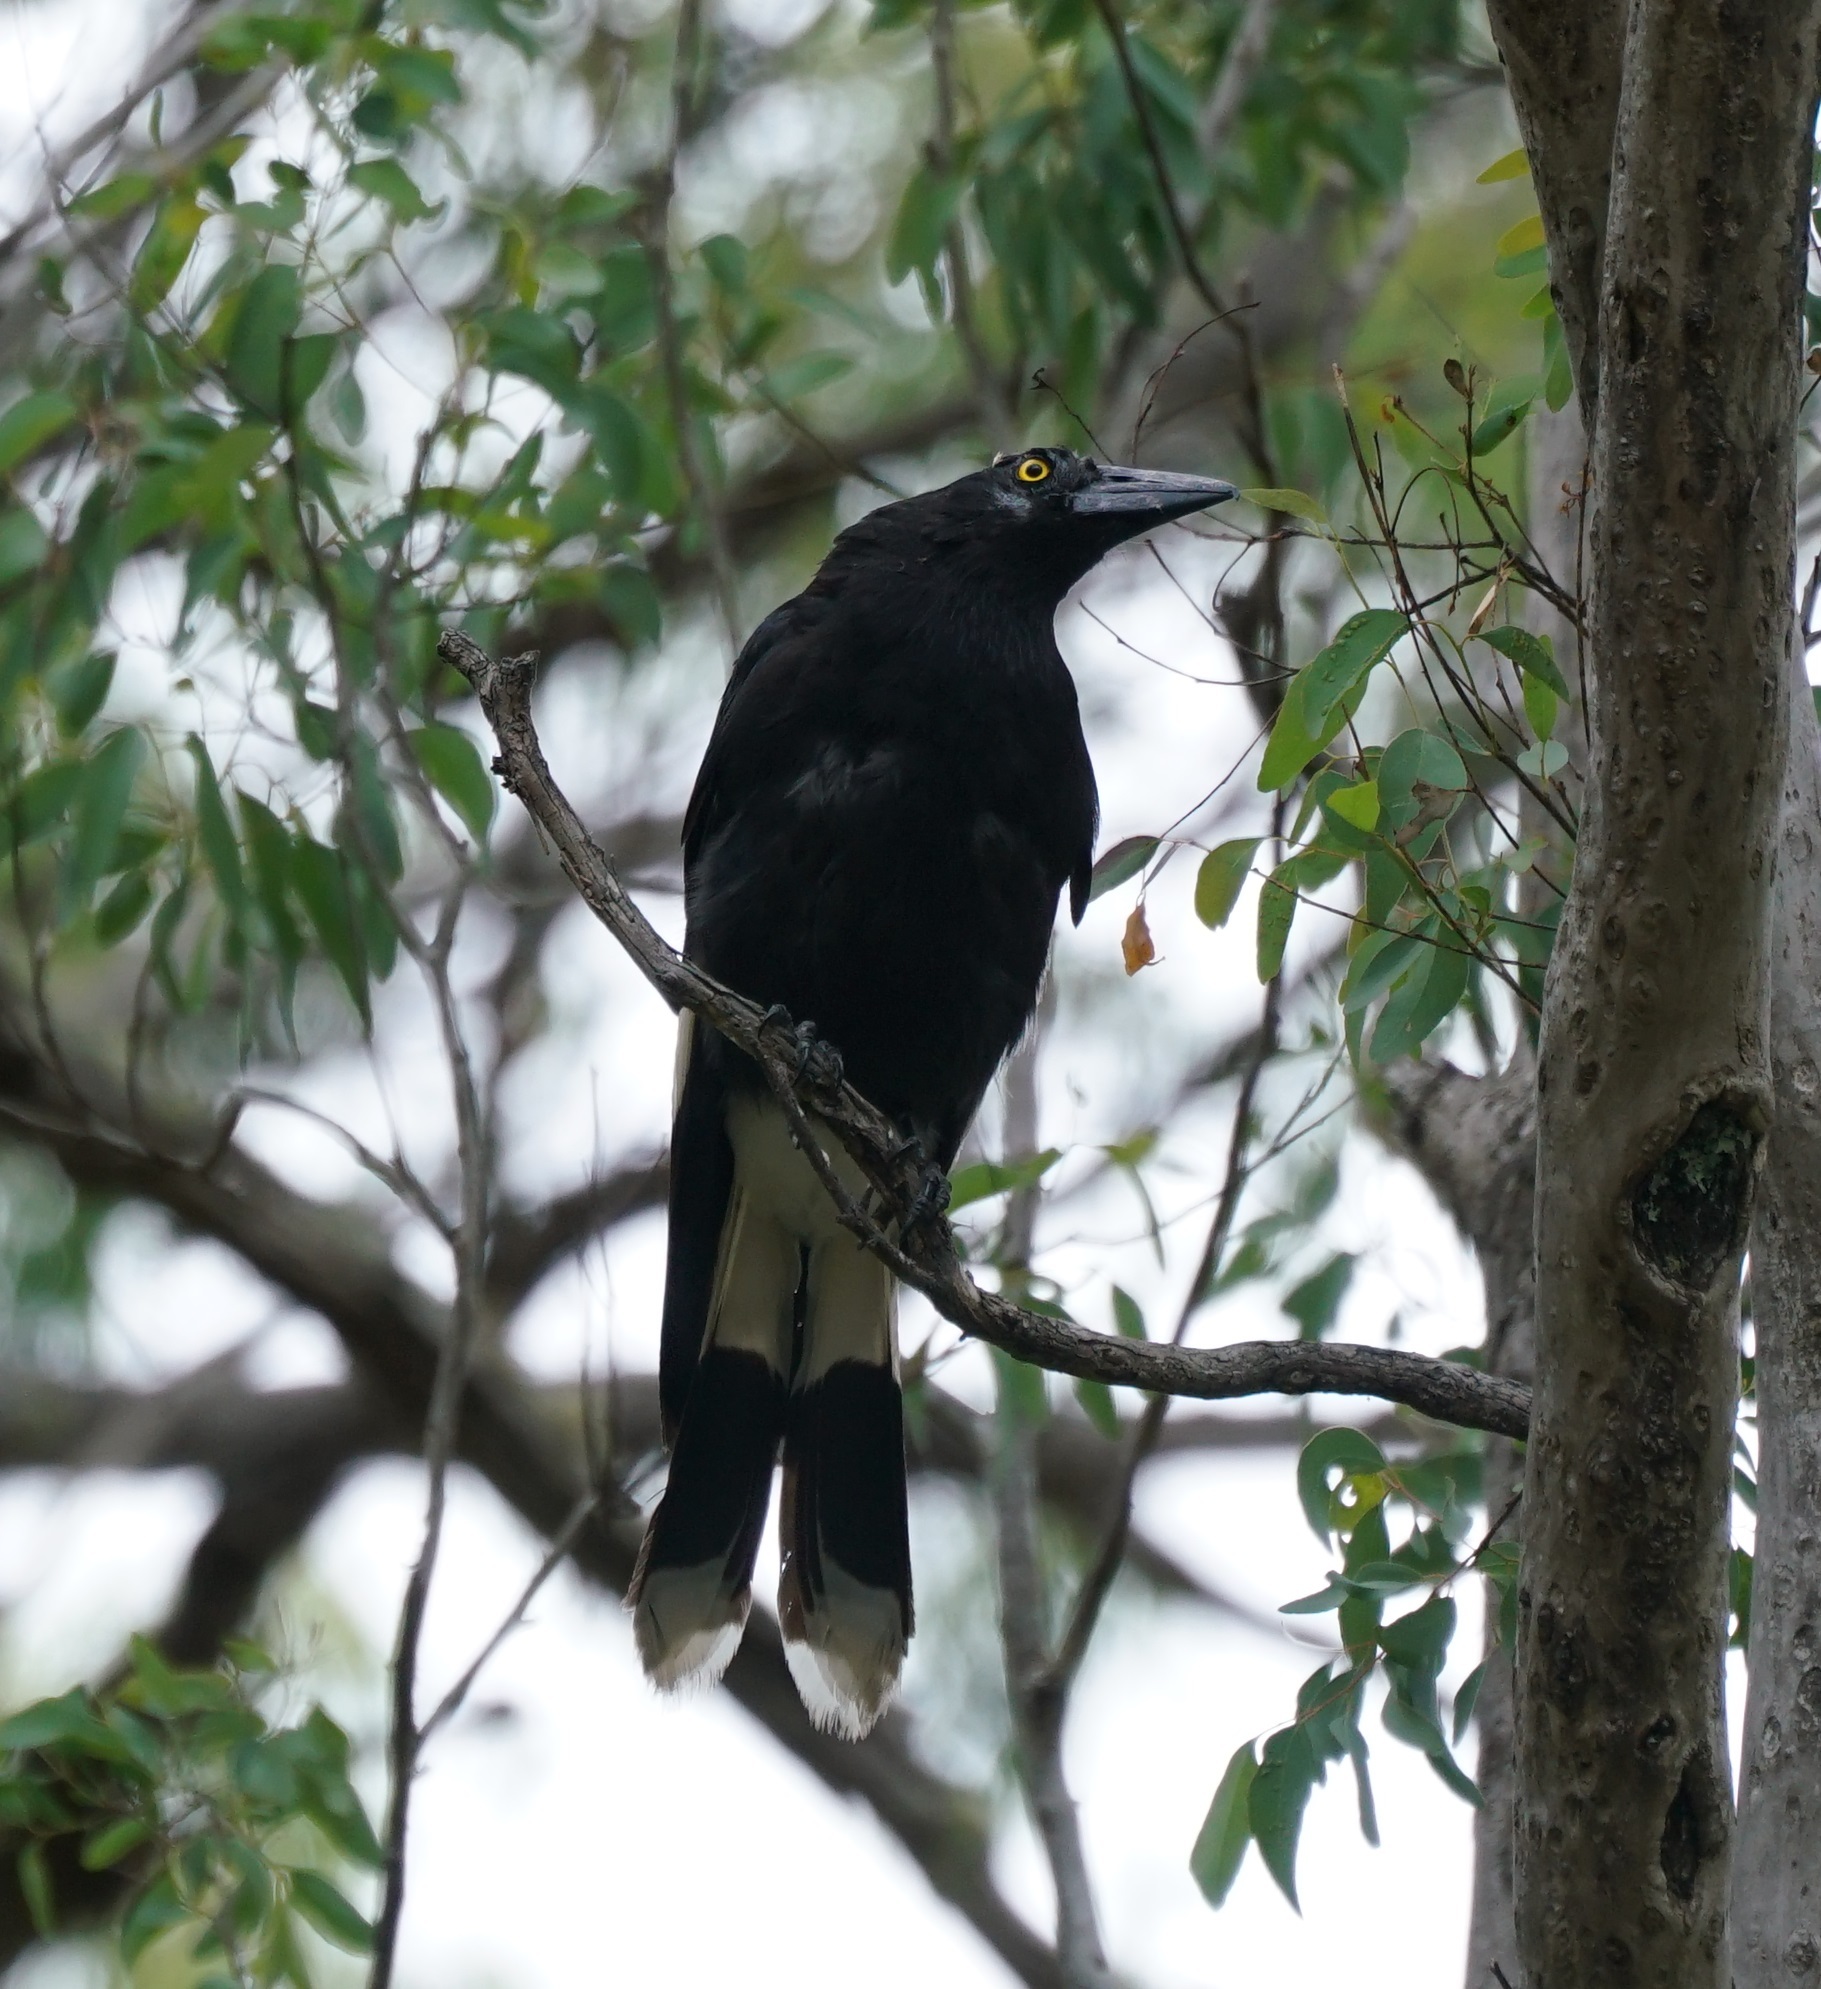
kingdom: Animalia
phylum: Chordata
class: Aves
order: Passeriformes
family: Cracticidae
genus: Strepera
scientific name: Strepera graculina
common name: Pied currawong
